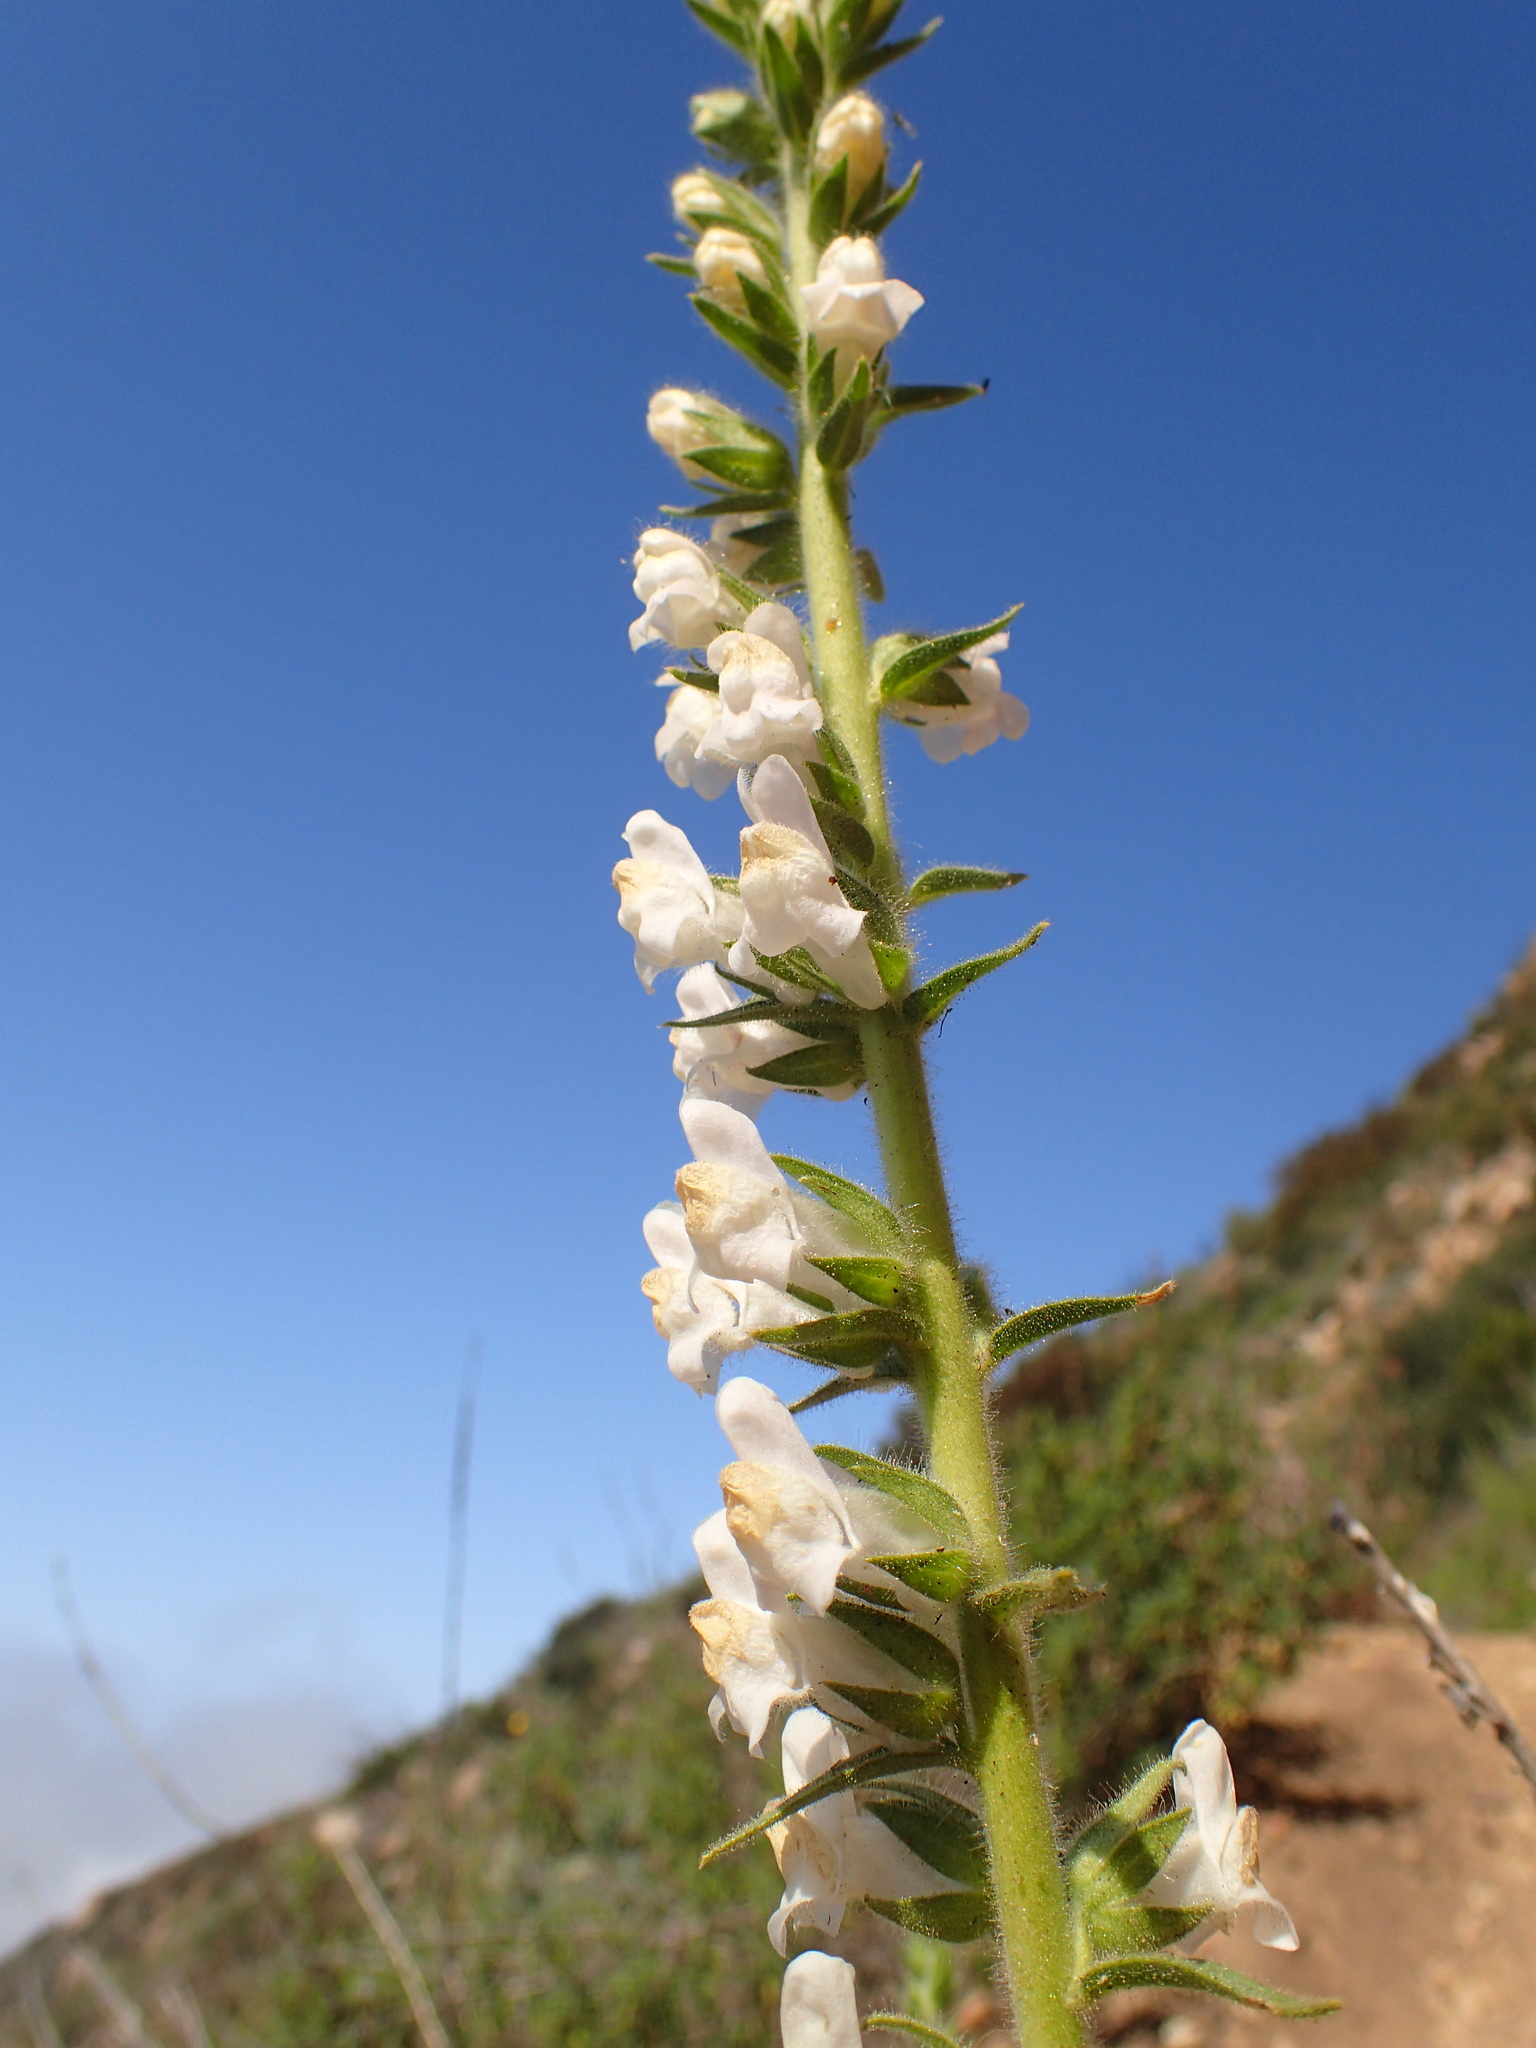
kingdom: Plantae
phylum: Tracheophyta
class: Magnoliopsida
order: Lamiales
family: Plantaginaceae
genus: Sairocarpus
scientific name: Sairocarpus multiflorus
